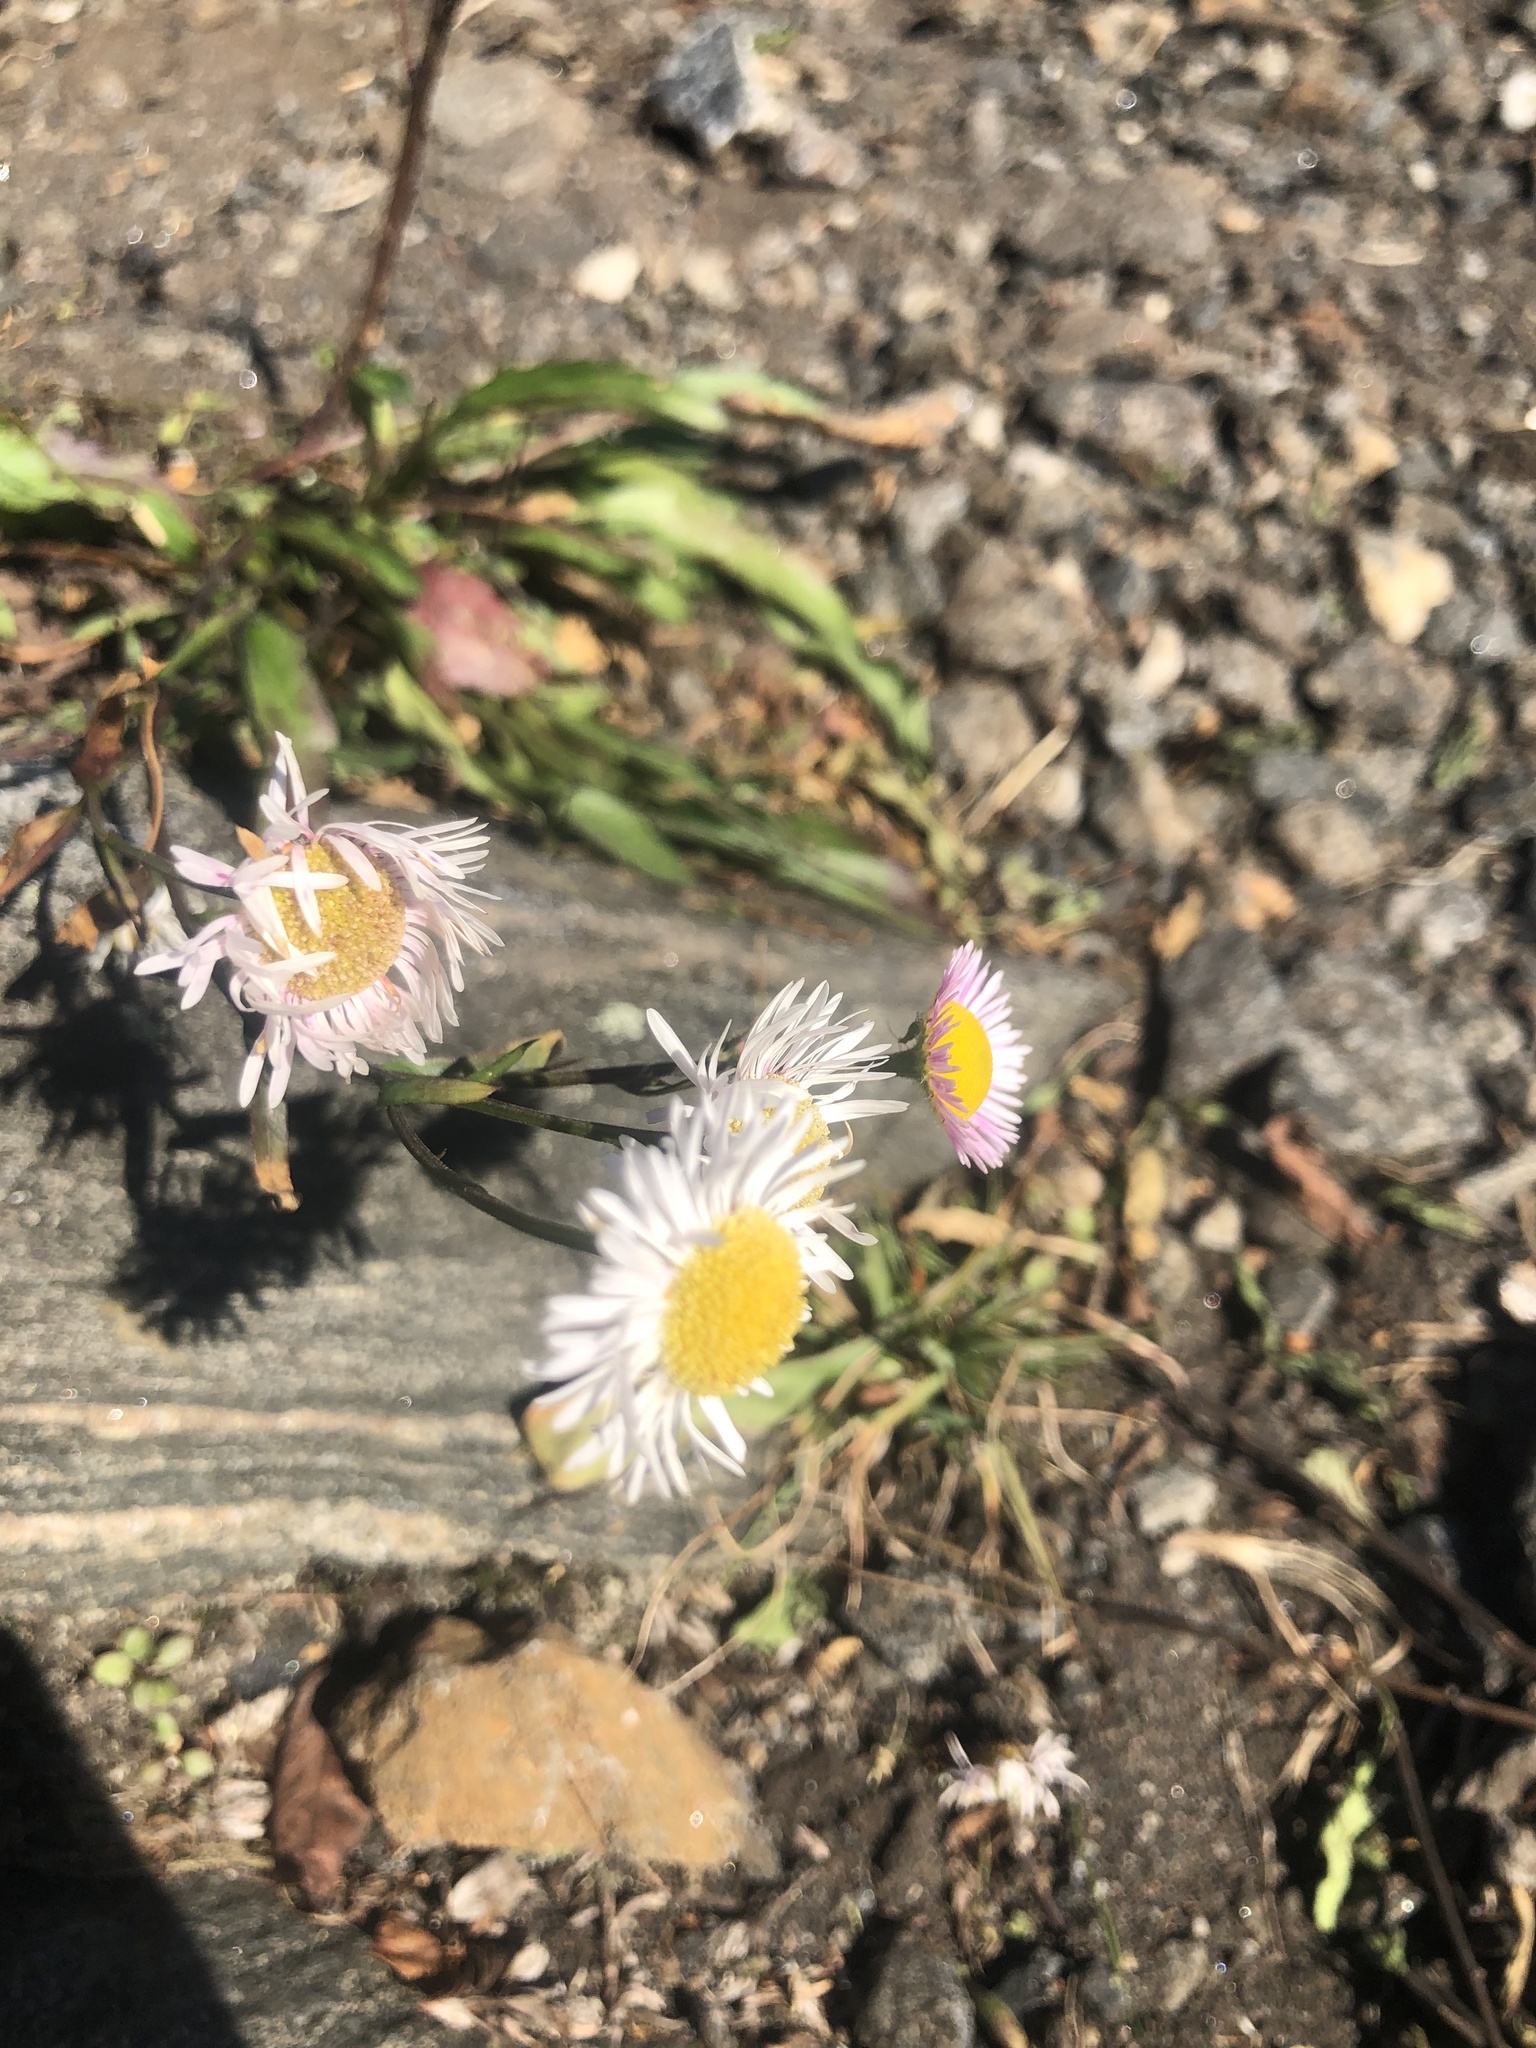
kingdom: Plantae
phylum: Tracheophyta
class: Magnoliopsida
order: Asterales
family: Asteraceae
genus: Erigeron
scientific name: Erigeron strigosus
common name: Common eastern fleabane
